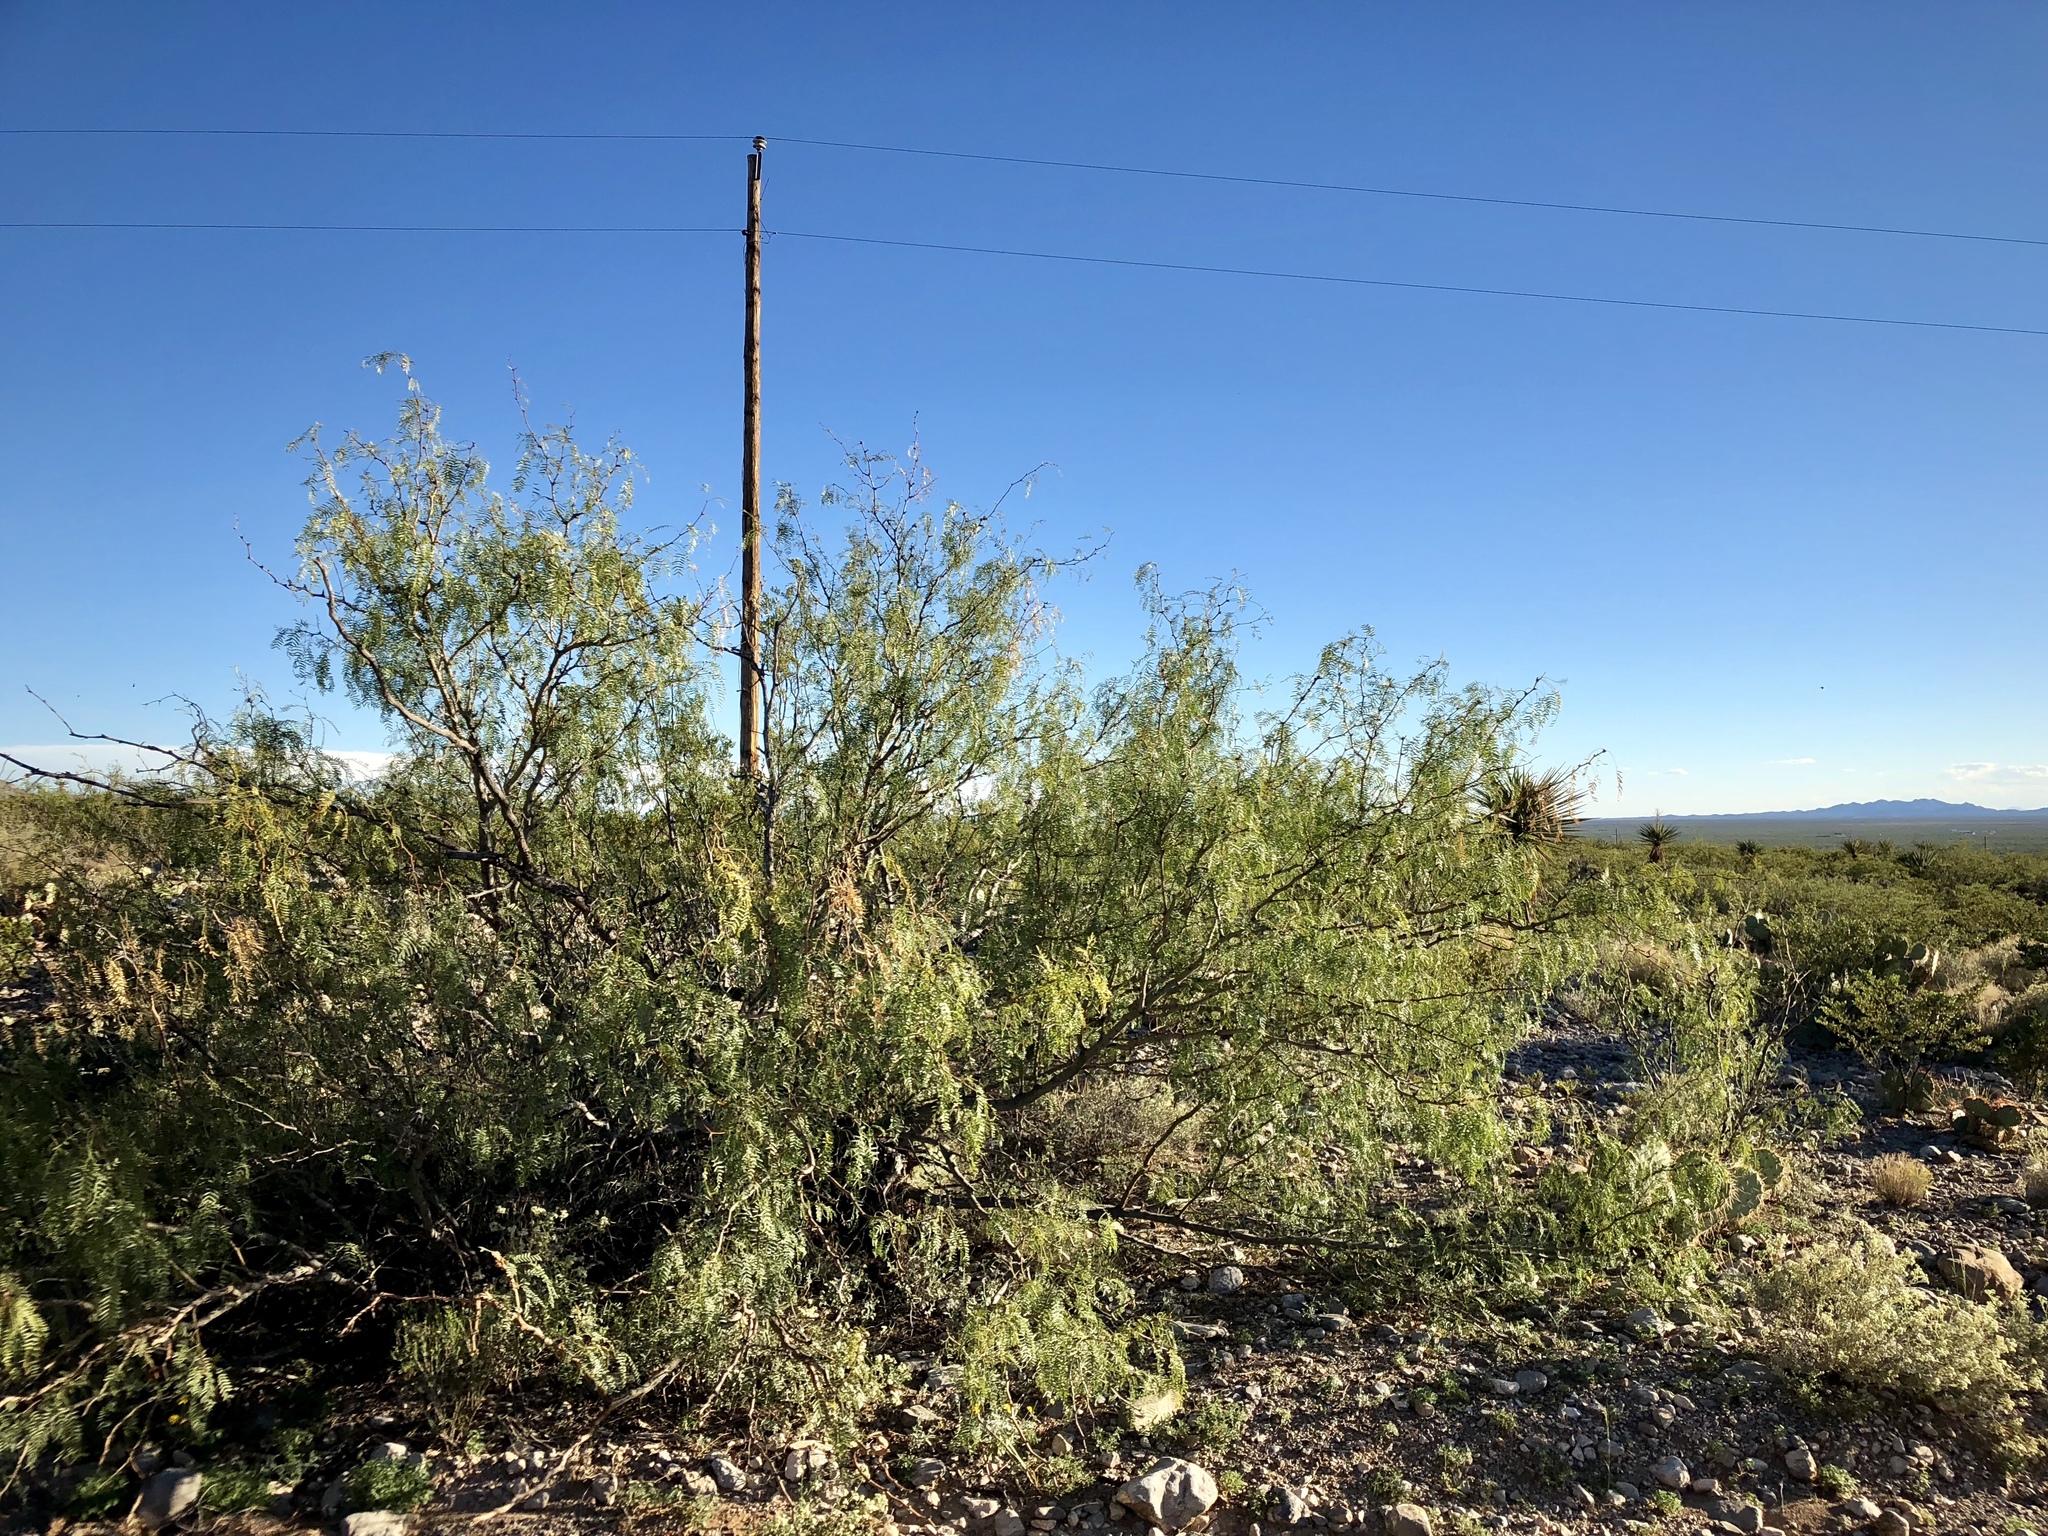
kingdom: Plantae
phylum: Tracheophyta
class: Magnoliopsida
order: Fabales
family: Fabaceae
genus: Prosopis
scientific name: Prosopis glandulosa
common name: Honey mesquite
